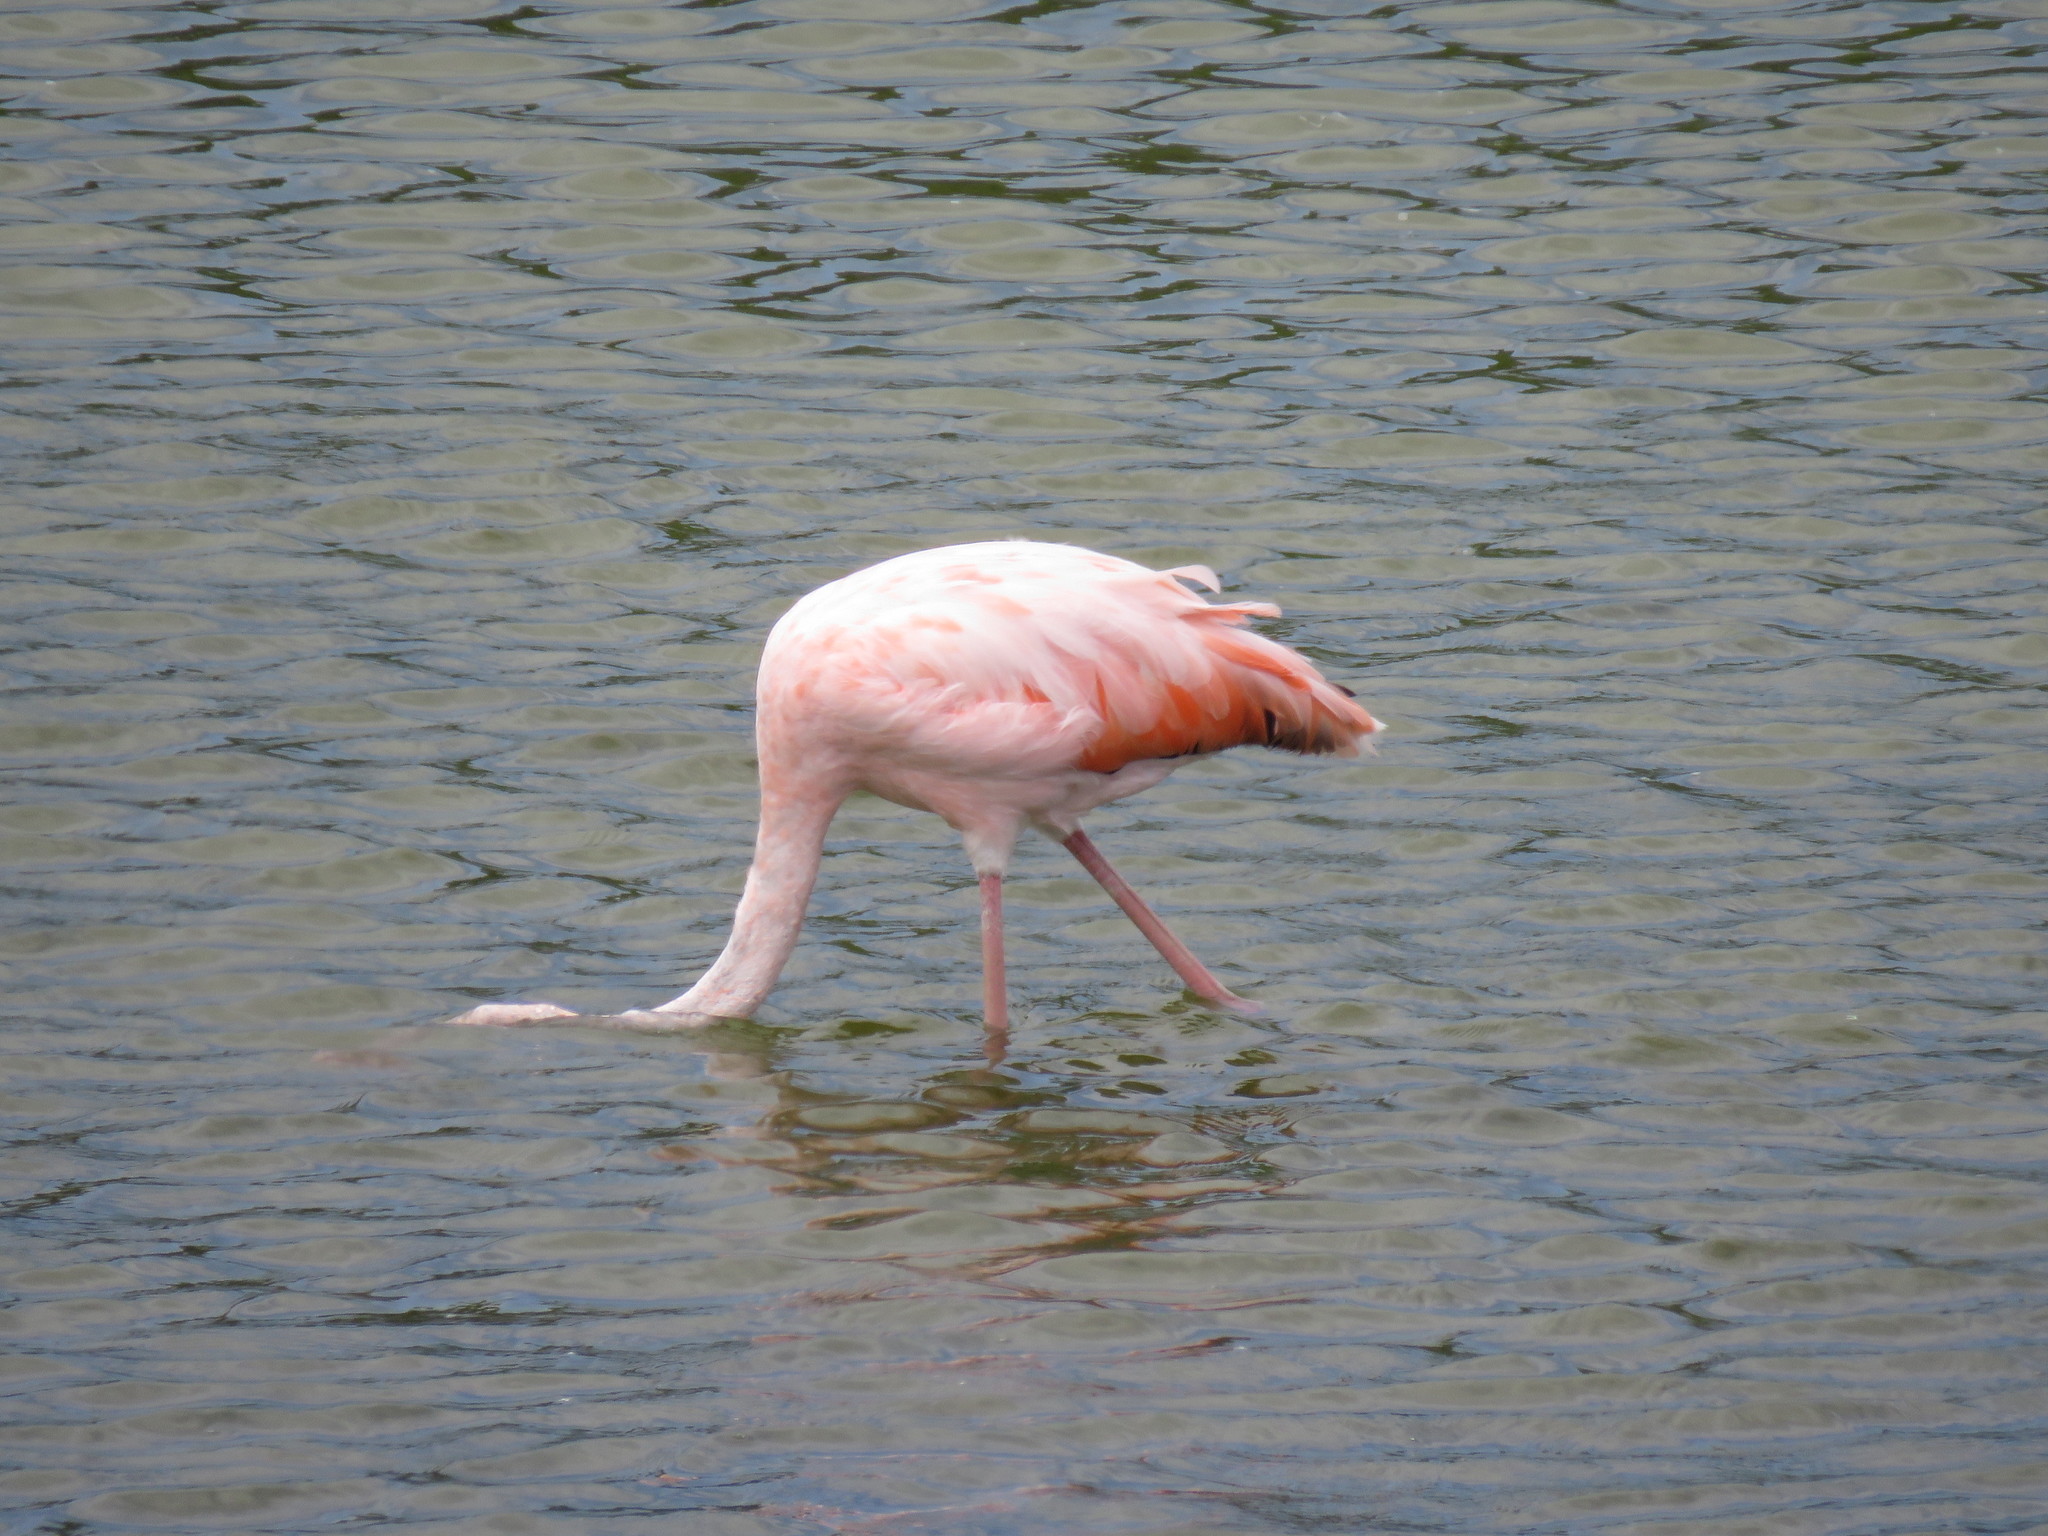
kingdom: Animalia
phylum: Chordata
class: Aves
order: Phoenicopteriformes
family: Phoenicopteridae
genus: Phoenicopterus
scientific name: Phoenicopterus ruber
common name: American flamingo
